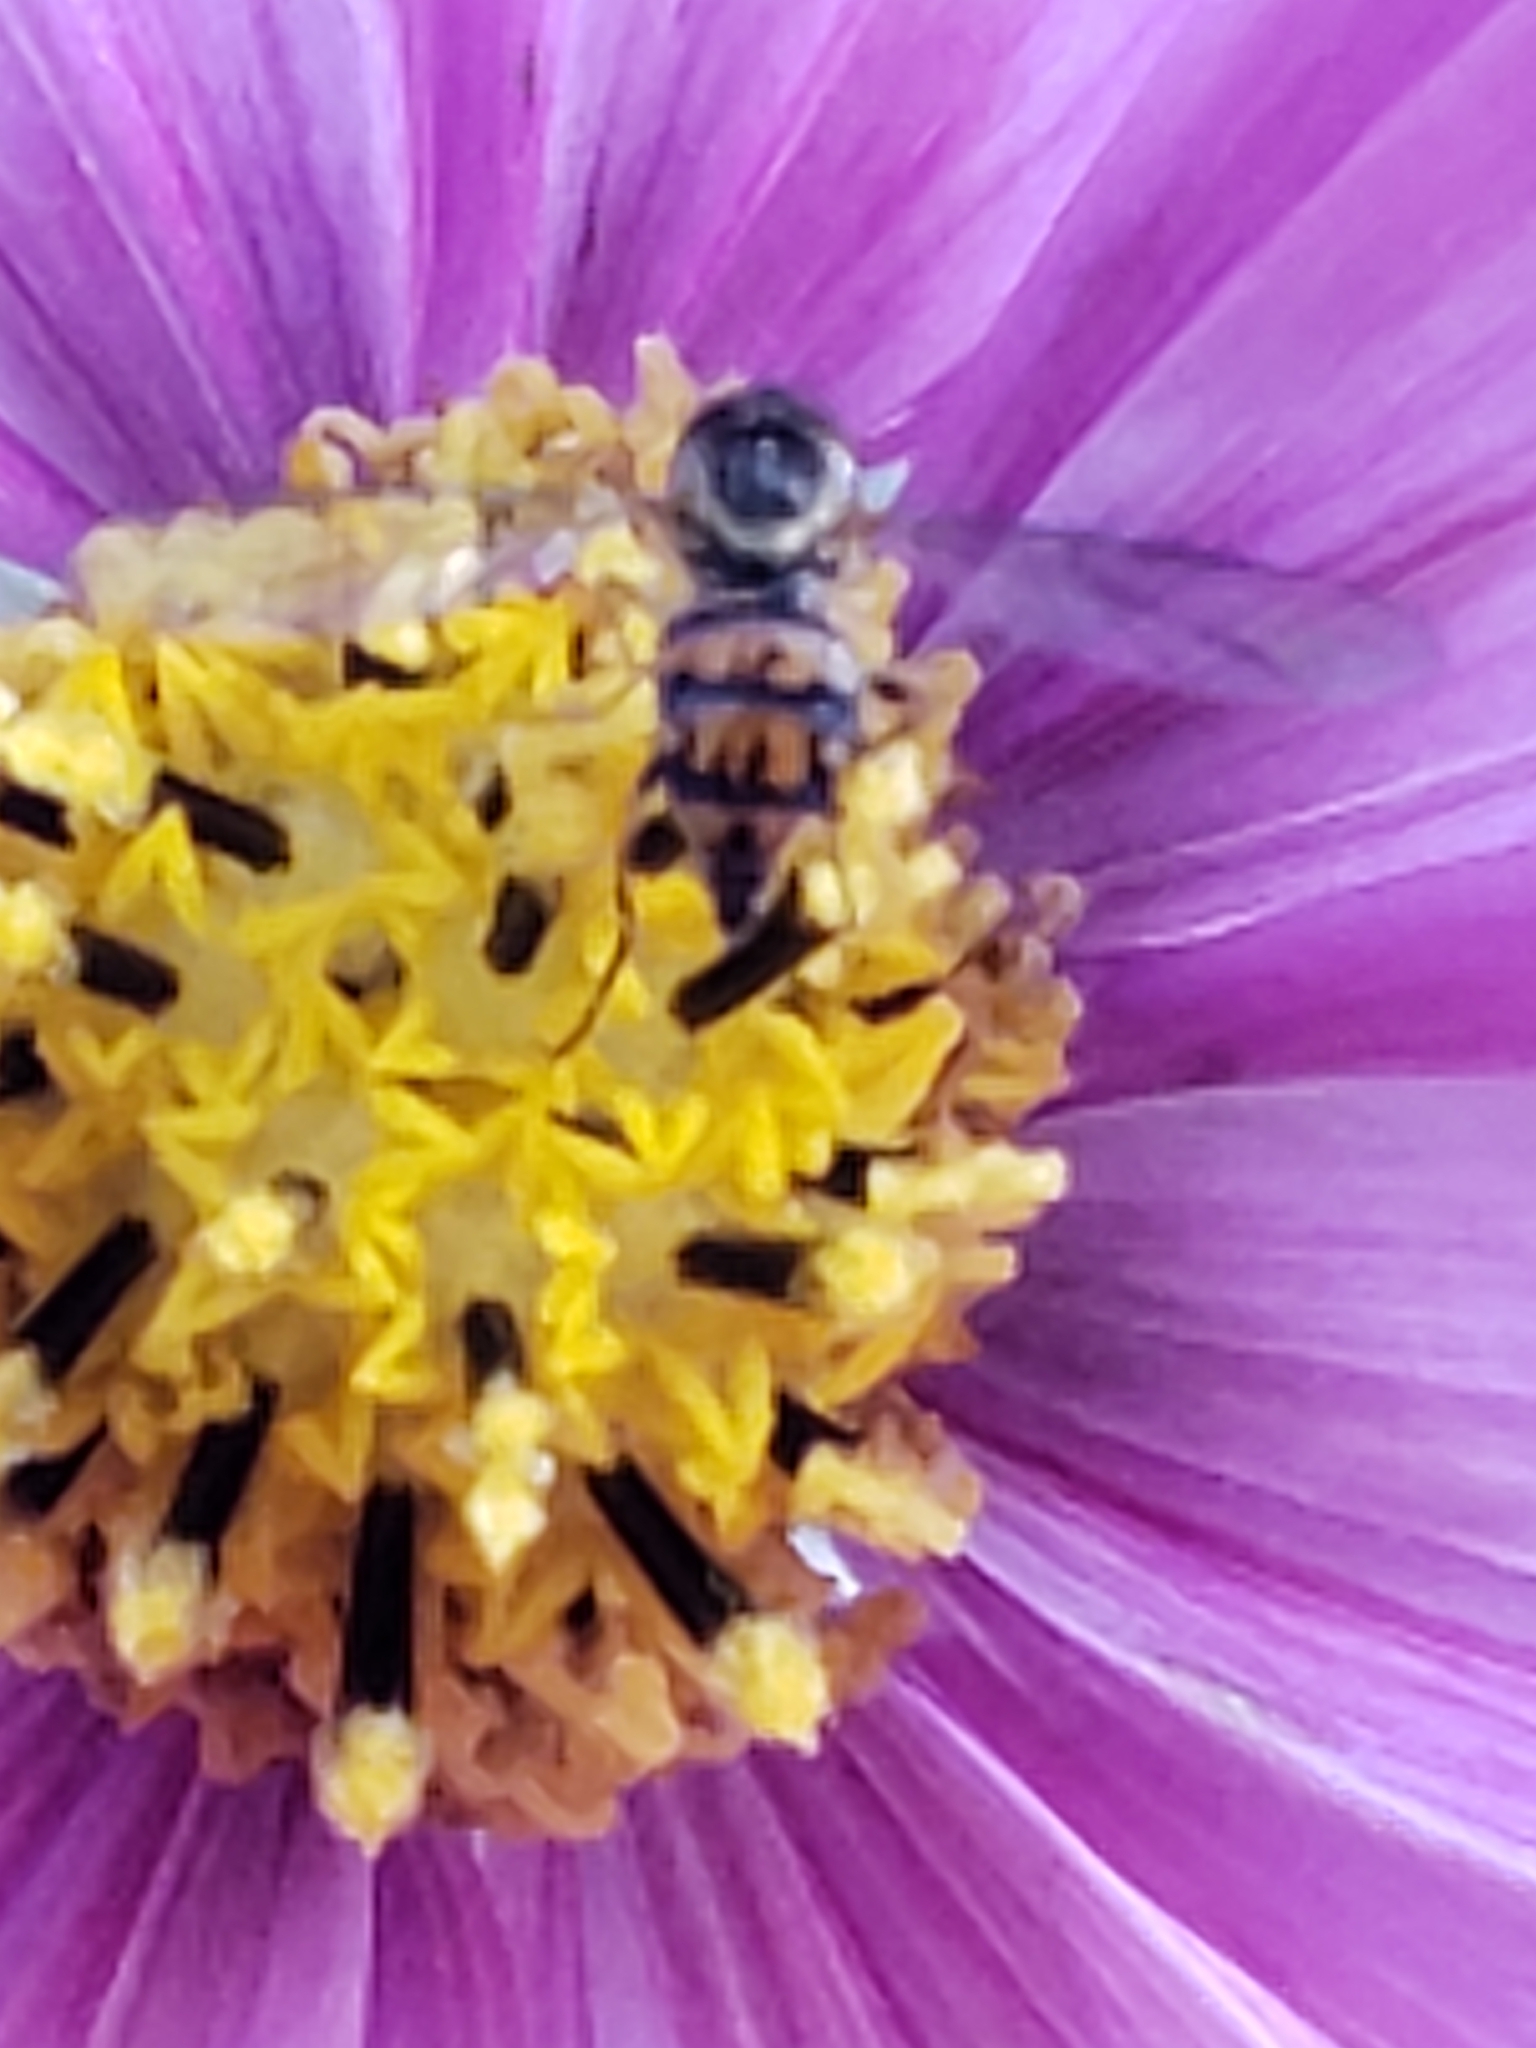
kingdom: Animalia
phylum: Arthropoda
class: Insecta
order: Diptera
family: Syrphidae
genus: Toxomerus
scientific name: Toxomerus geminatus
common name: Eastern calligrapher
